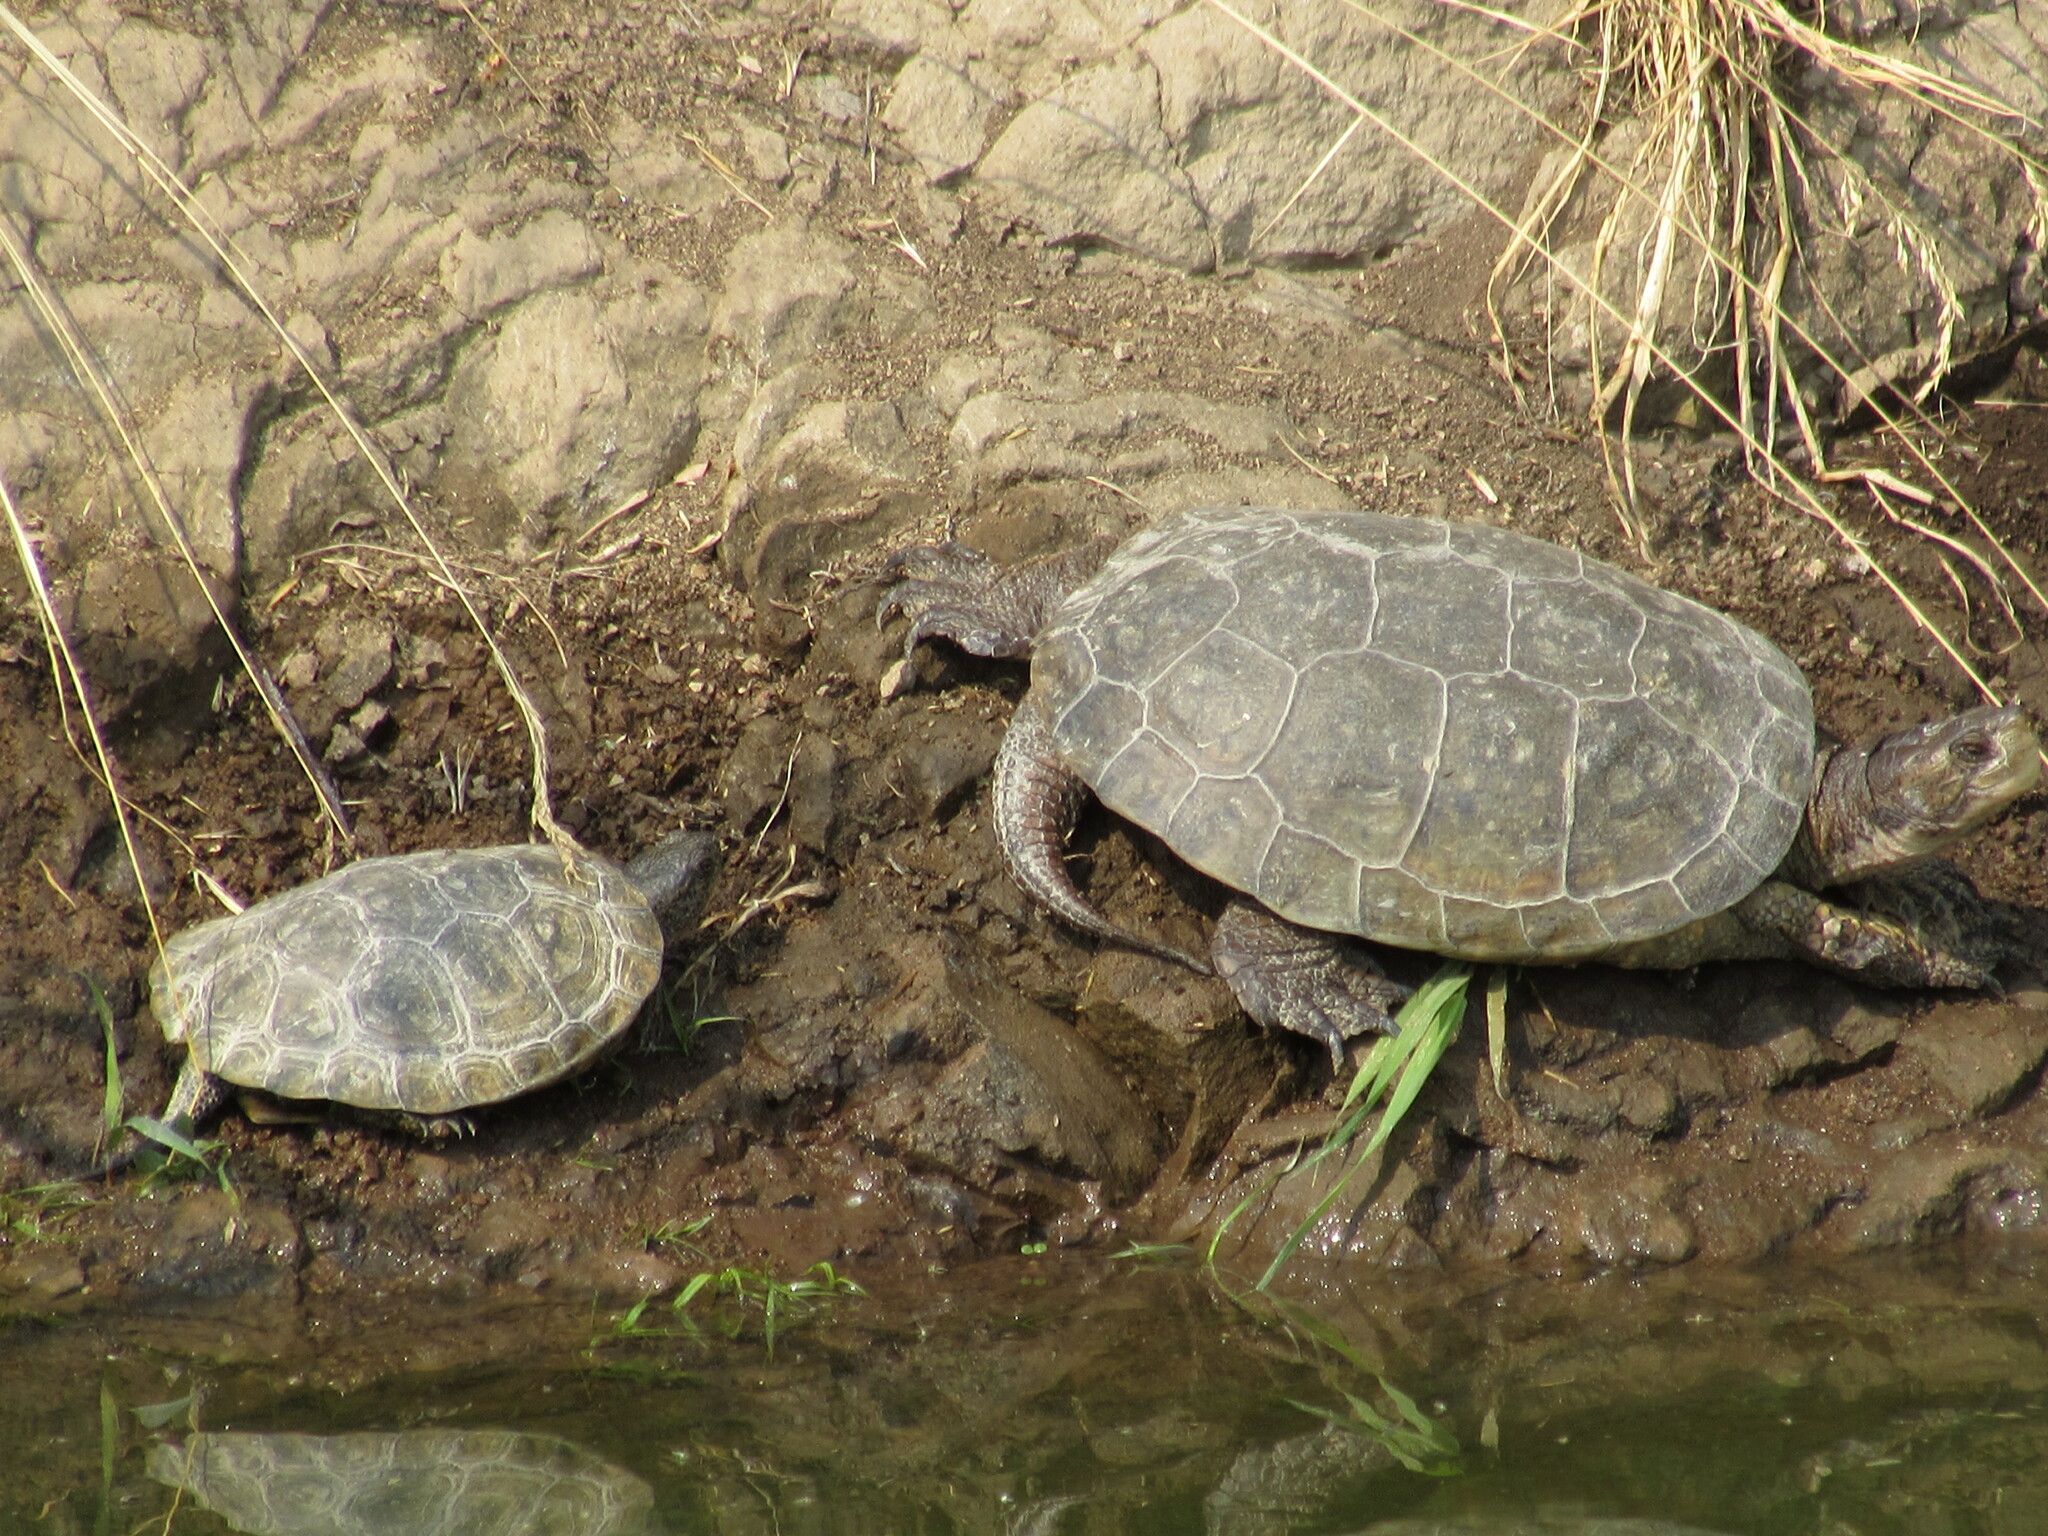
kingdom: Animalia
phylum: Chordata
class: Testudines
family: Emydidae
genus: Actinemys
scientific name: Actinemys marmorata
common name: Western pond turtle
